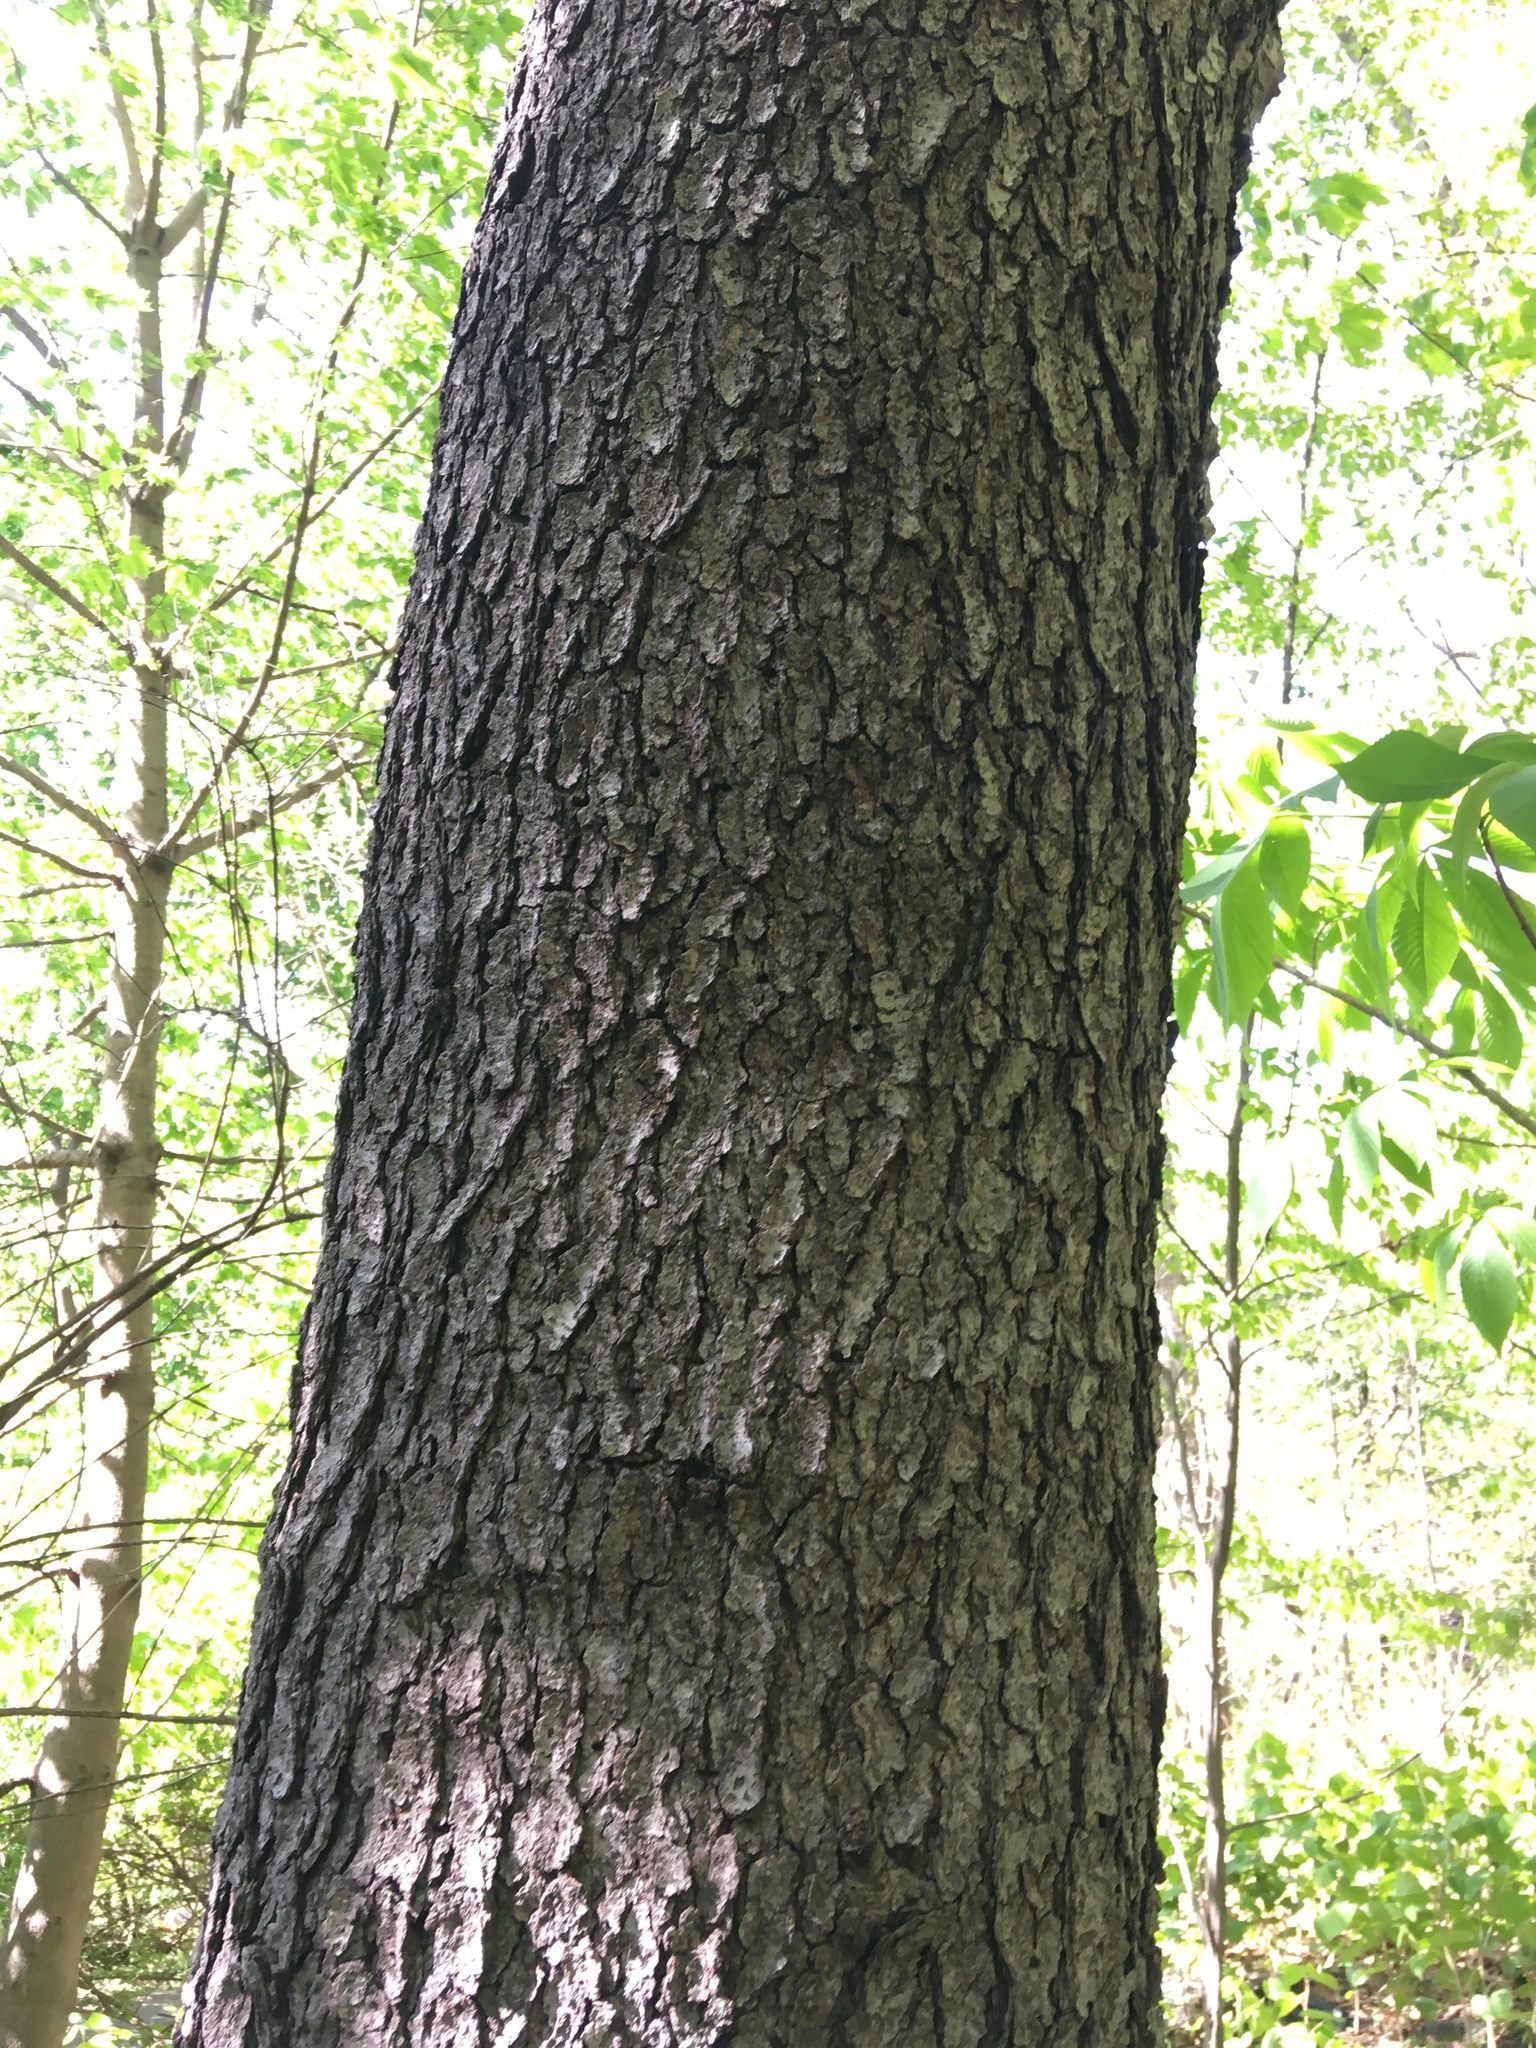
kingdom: Plantae
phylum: Tracheophyta
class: Magnoliopsida
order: Rosales
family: Rosaceae
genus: Prunus
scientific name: Prunus serotina
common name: Black cherry
